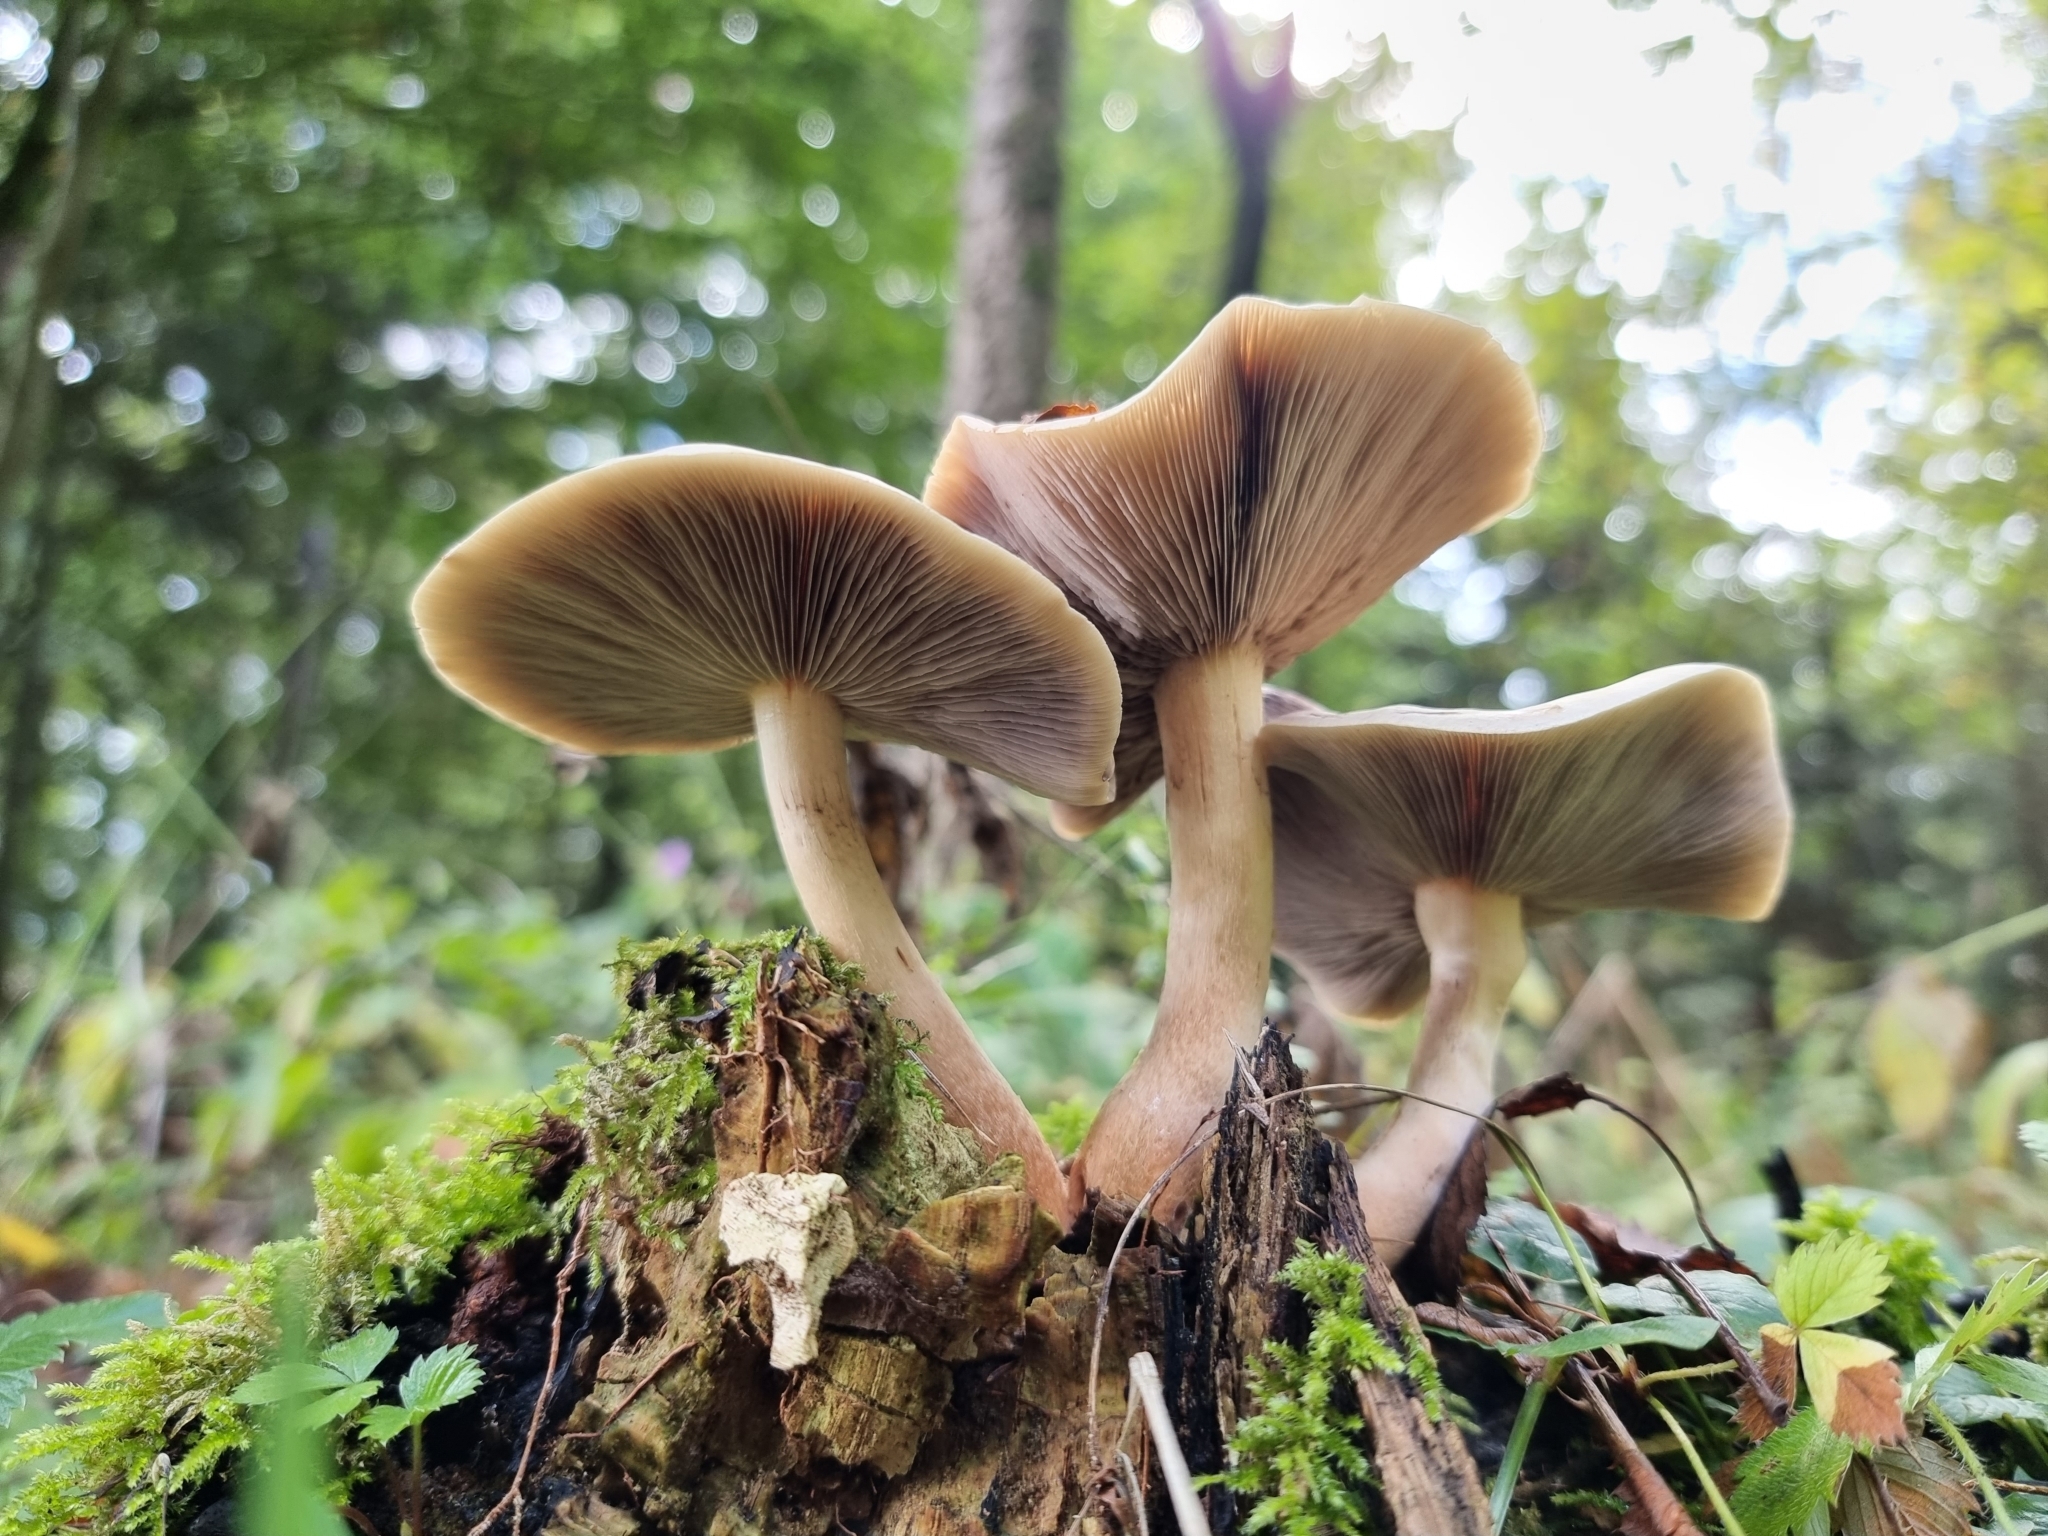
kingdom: Fungi
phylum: Basidiomycota
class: Agaricomycetes
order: Agaricales
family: Strophariaceae
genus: Hypholoma
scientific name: Hypholoma lateritium
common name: Brick caps
